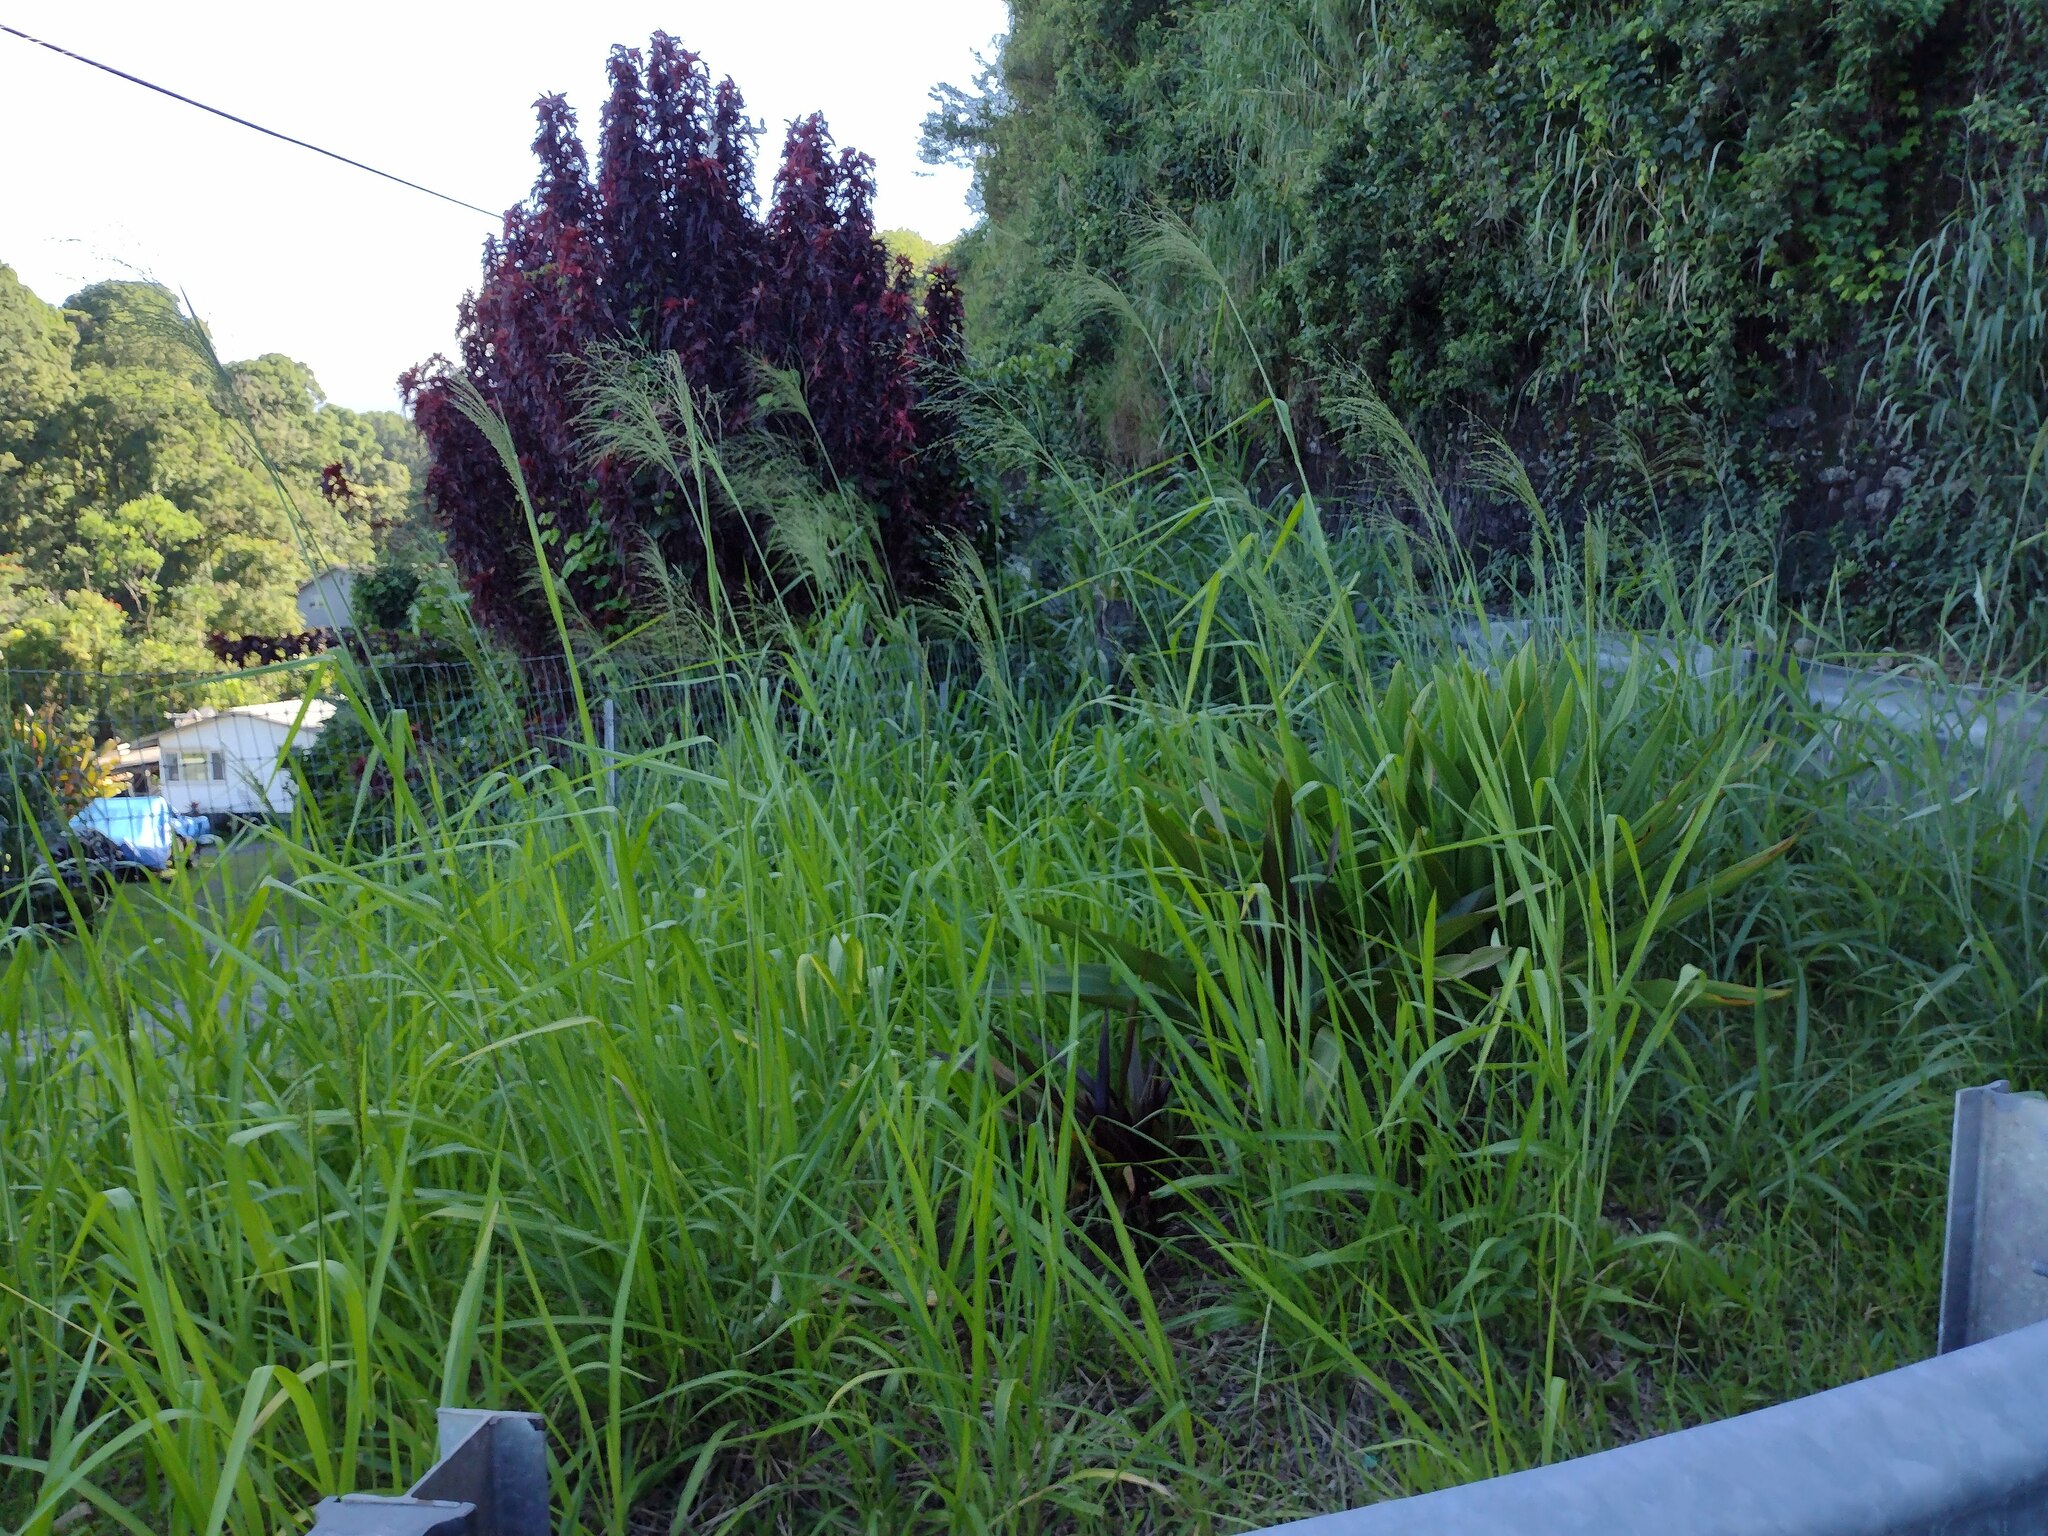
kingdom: Plantae
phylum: Tracheophyta
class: Liliopsida
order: Poales
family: Poaceae
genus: Megathyrsus
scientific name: Megathyrsus maximus
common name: Guineagrass
